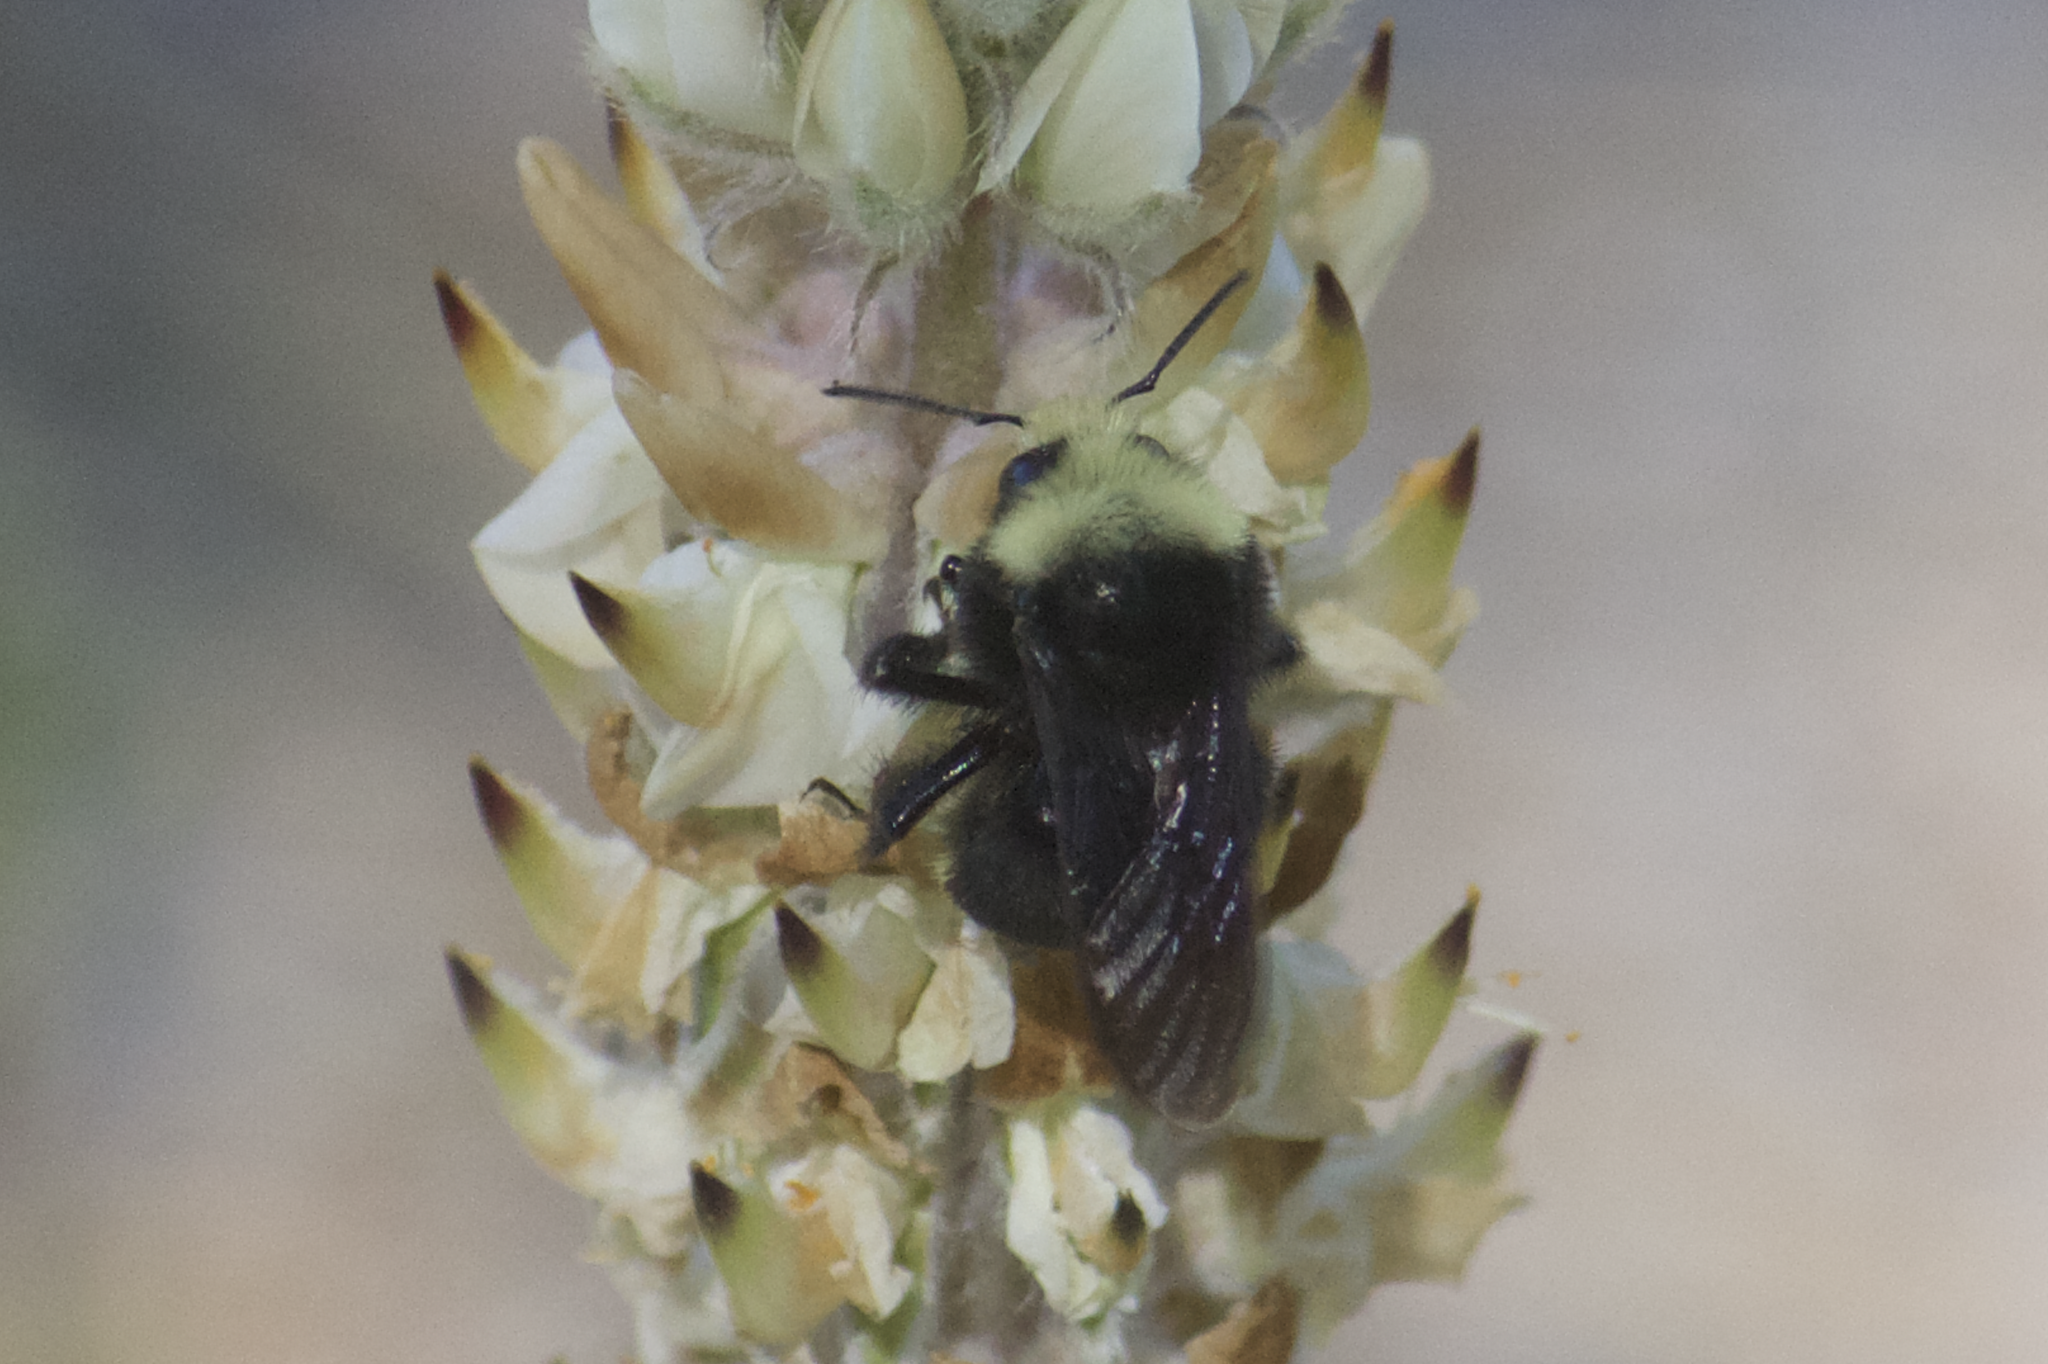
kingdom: Animalia
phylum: Arthropoda
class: Insecta
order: Hymenoptera
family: Apidae
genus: Bombus
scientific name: Bombus vosnesenskii
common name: Vosnesensky bumble bee
